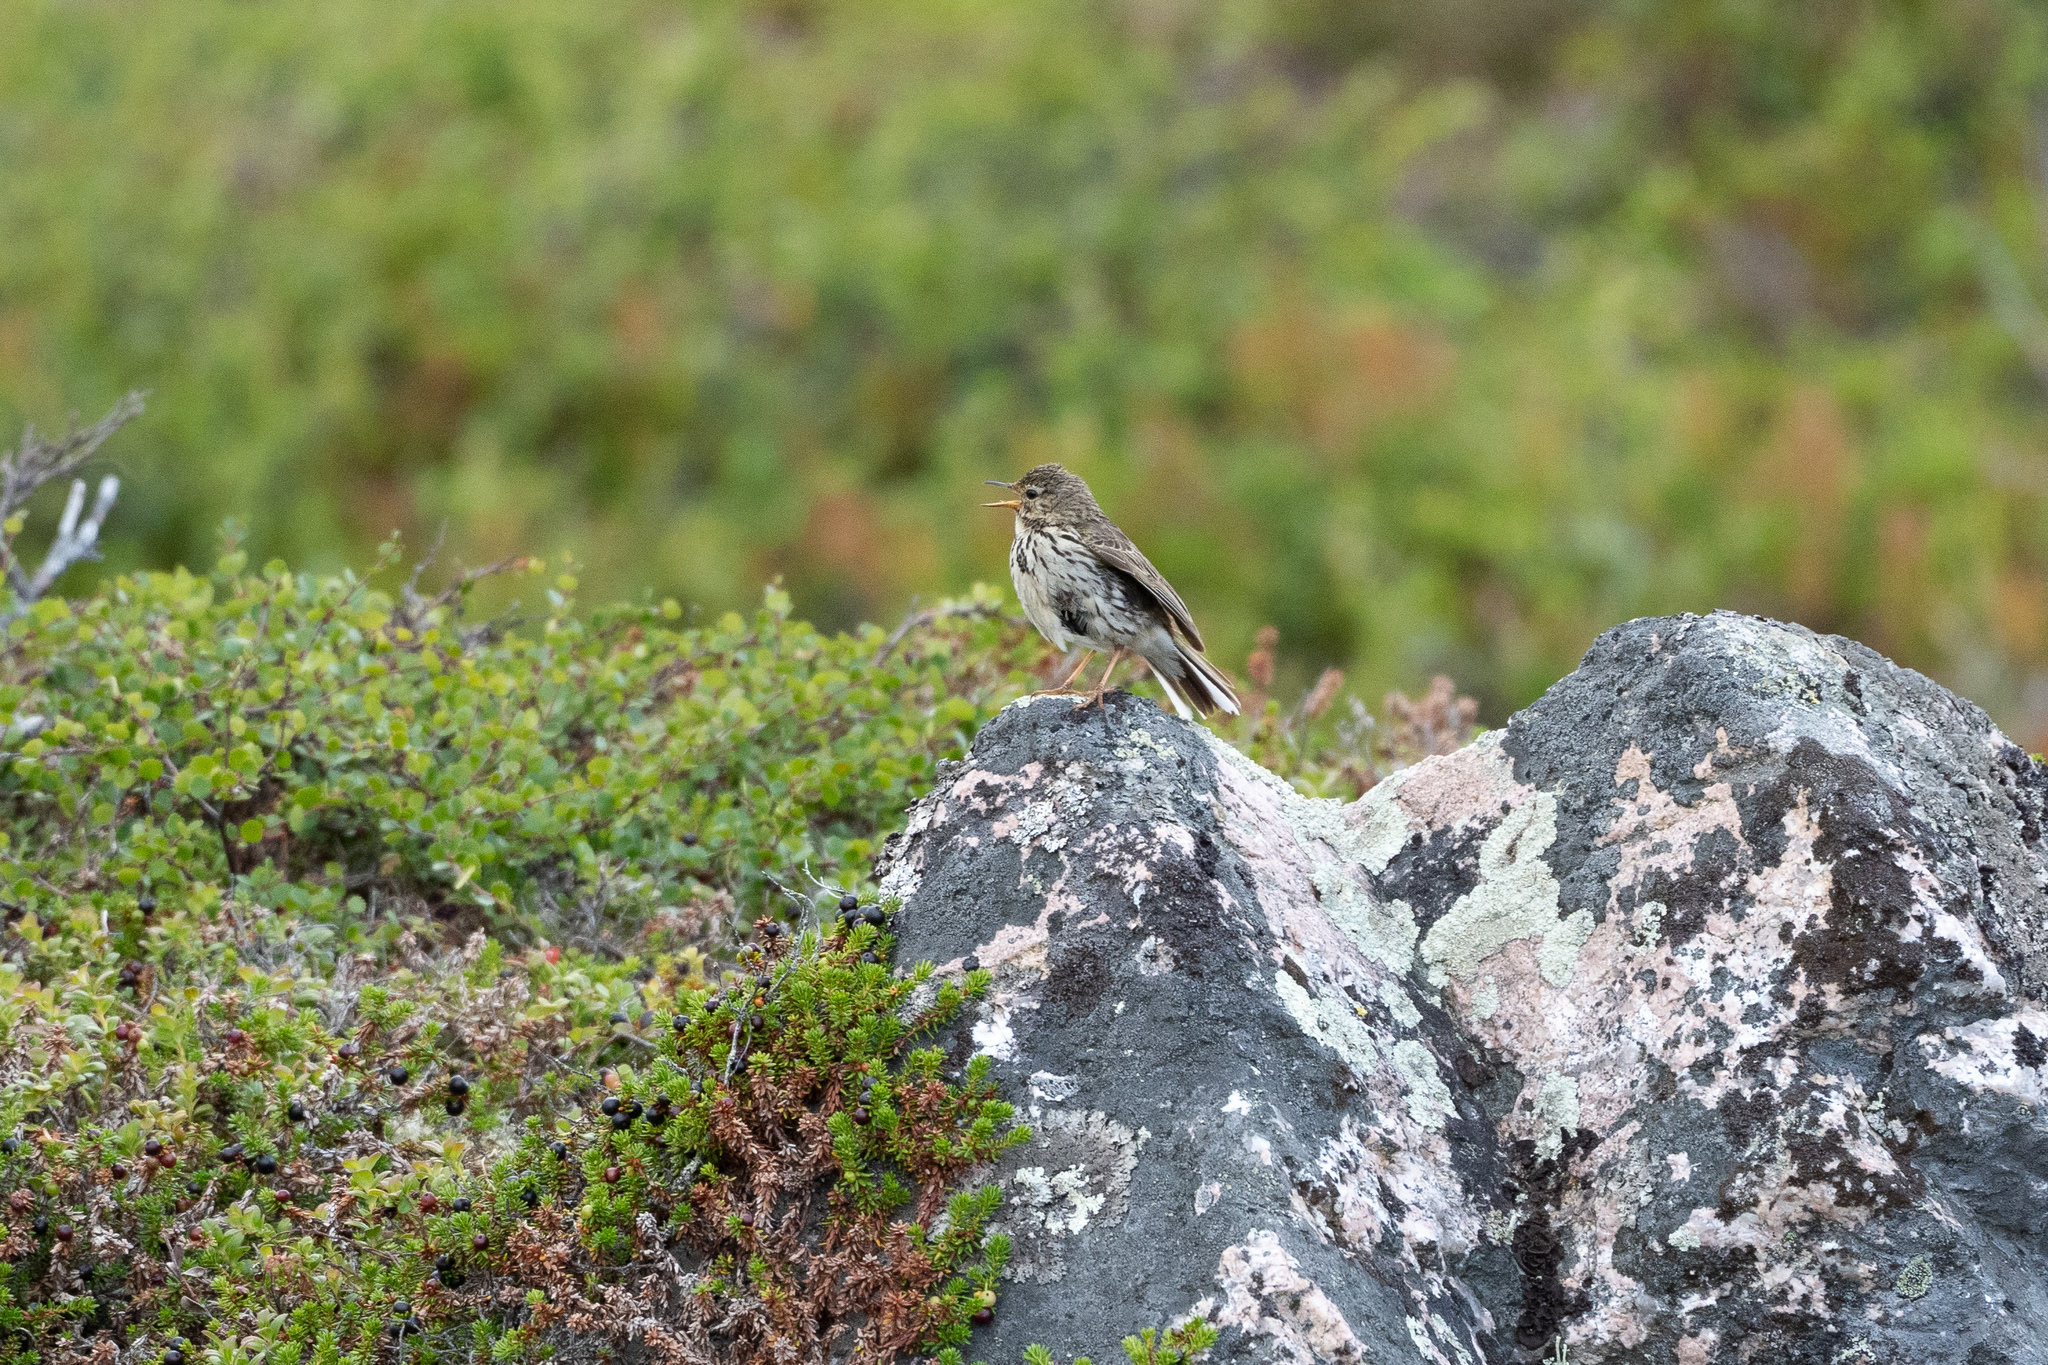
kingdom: Animalia
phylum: Chordata
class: Aves
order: Passeriformes
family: Motacillidae
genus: Anthus
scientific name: Anthus pratensis
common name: Meadow pipit
